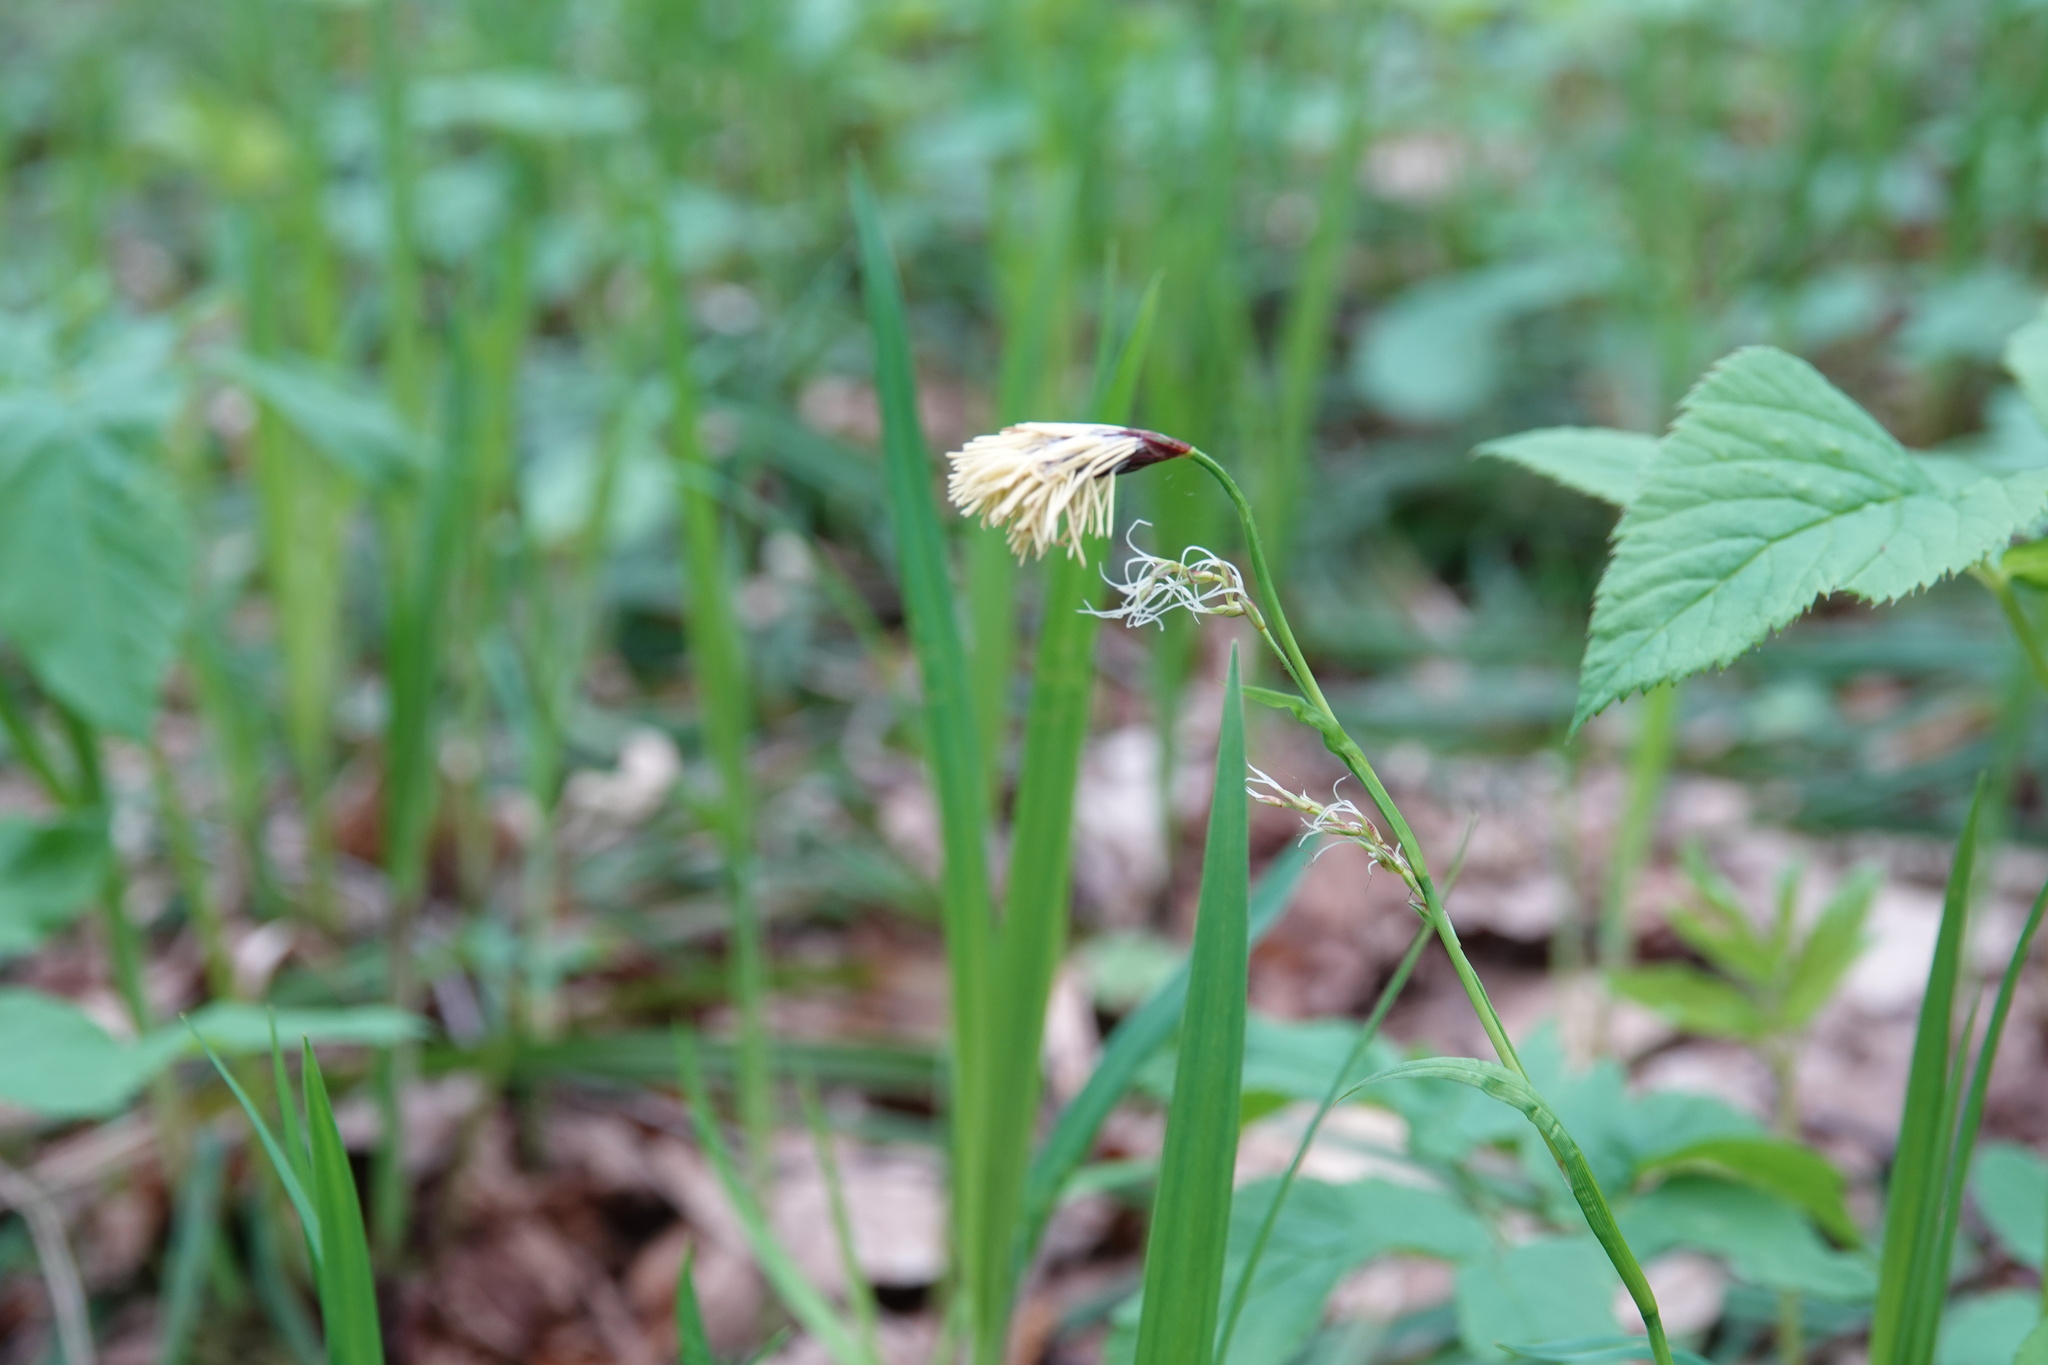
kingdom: Plantae
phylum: Tracheophyta
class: Liliopsida
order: Poales
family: Cyperaceae
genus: Carex
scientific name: Carex pilosa
